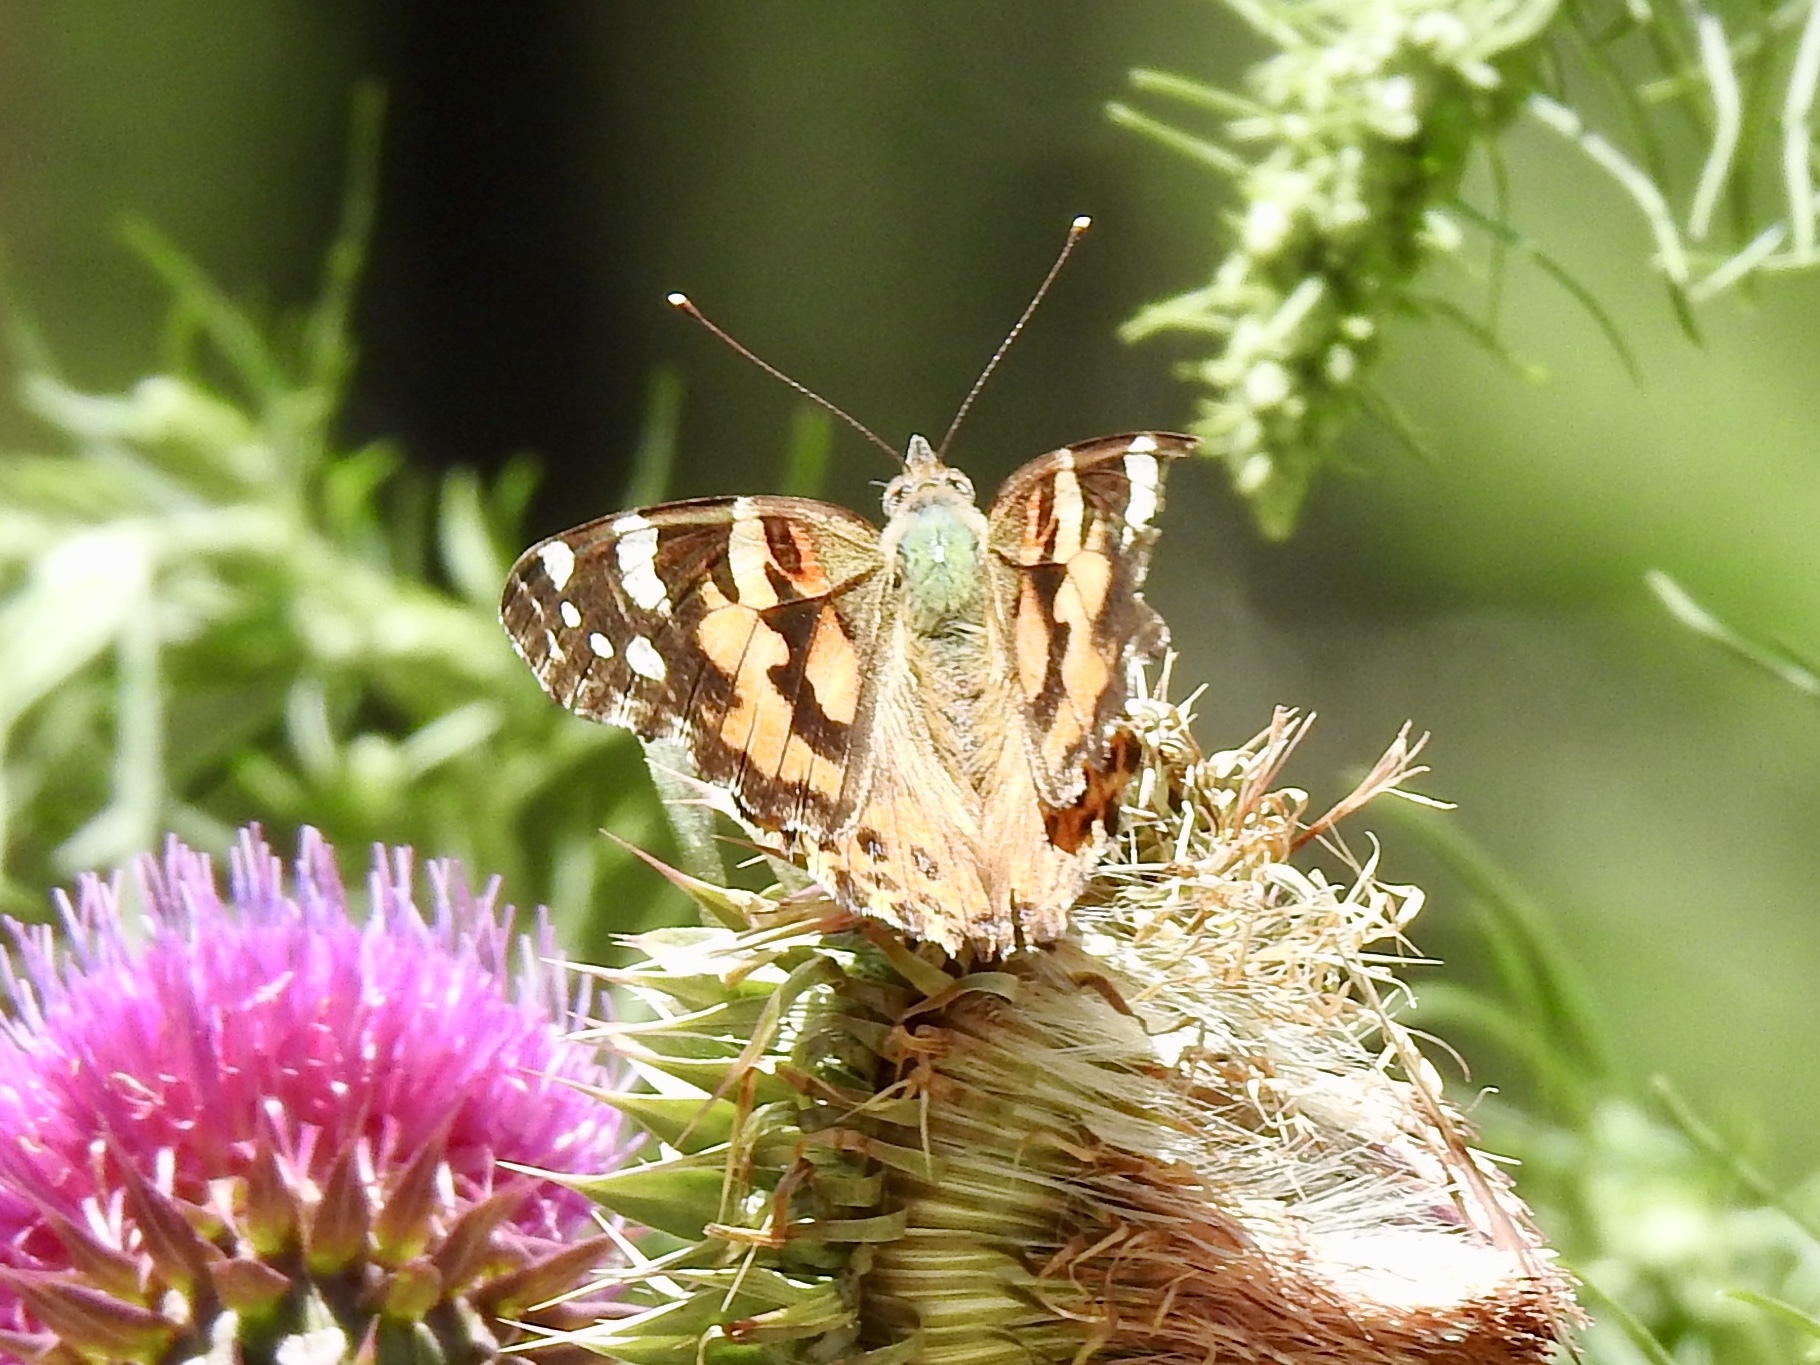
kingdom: Animalia
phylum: Arthropoda
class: Insecta
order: Lepidoptera
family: Nymphalidae
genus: Vanessa
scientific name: Vanessa cardui
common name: Painted lady
